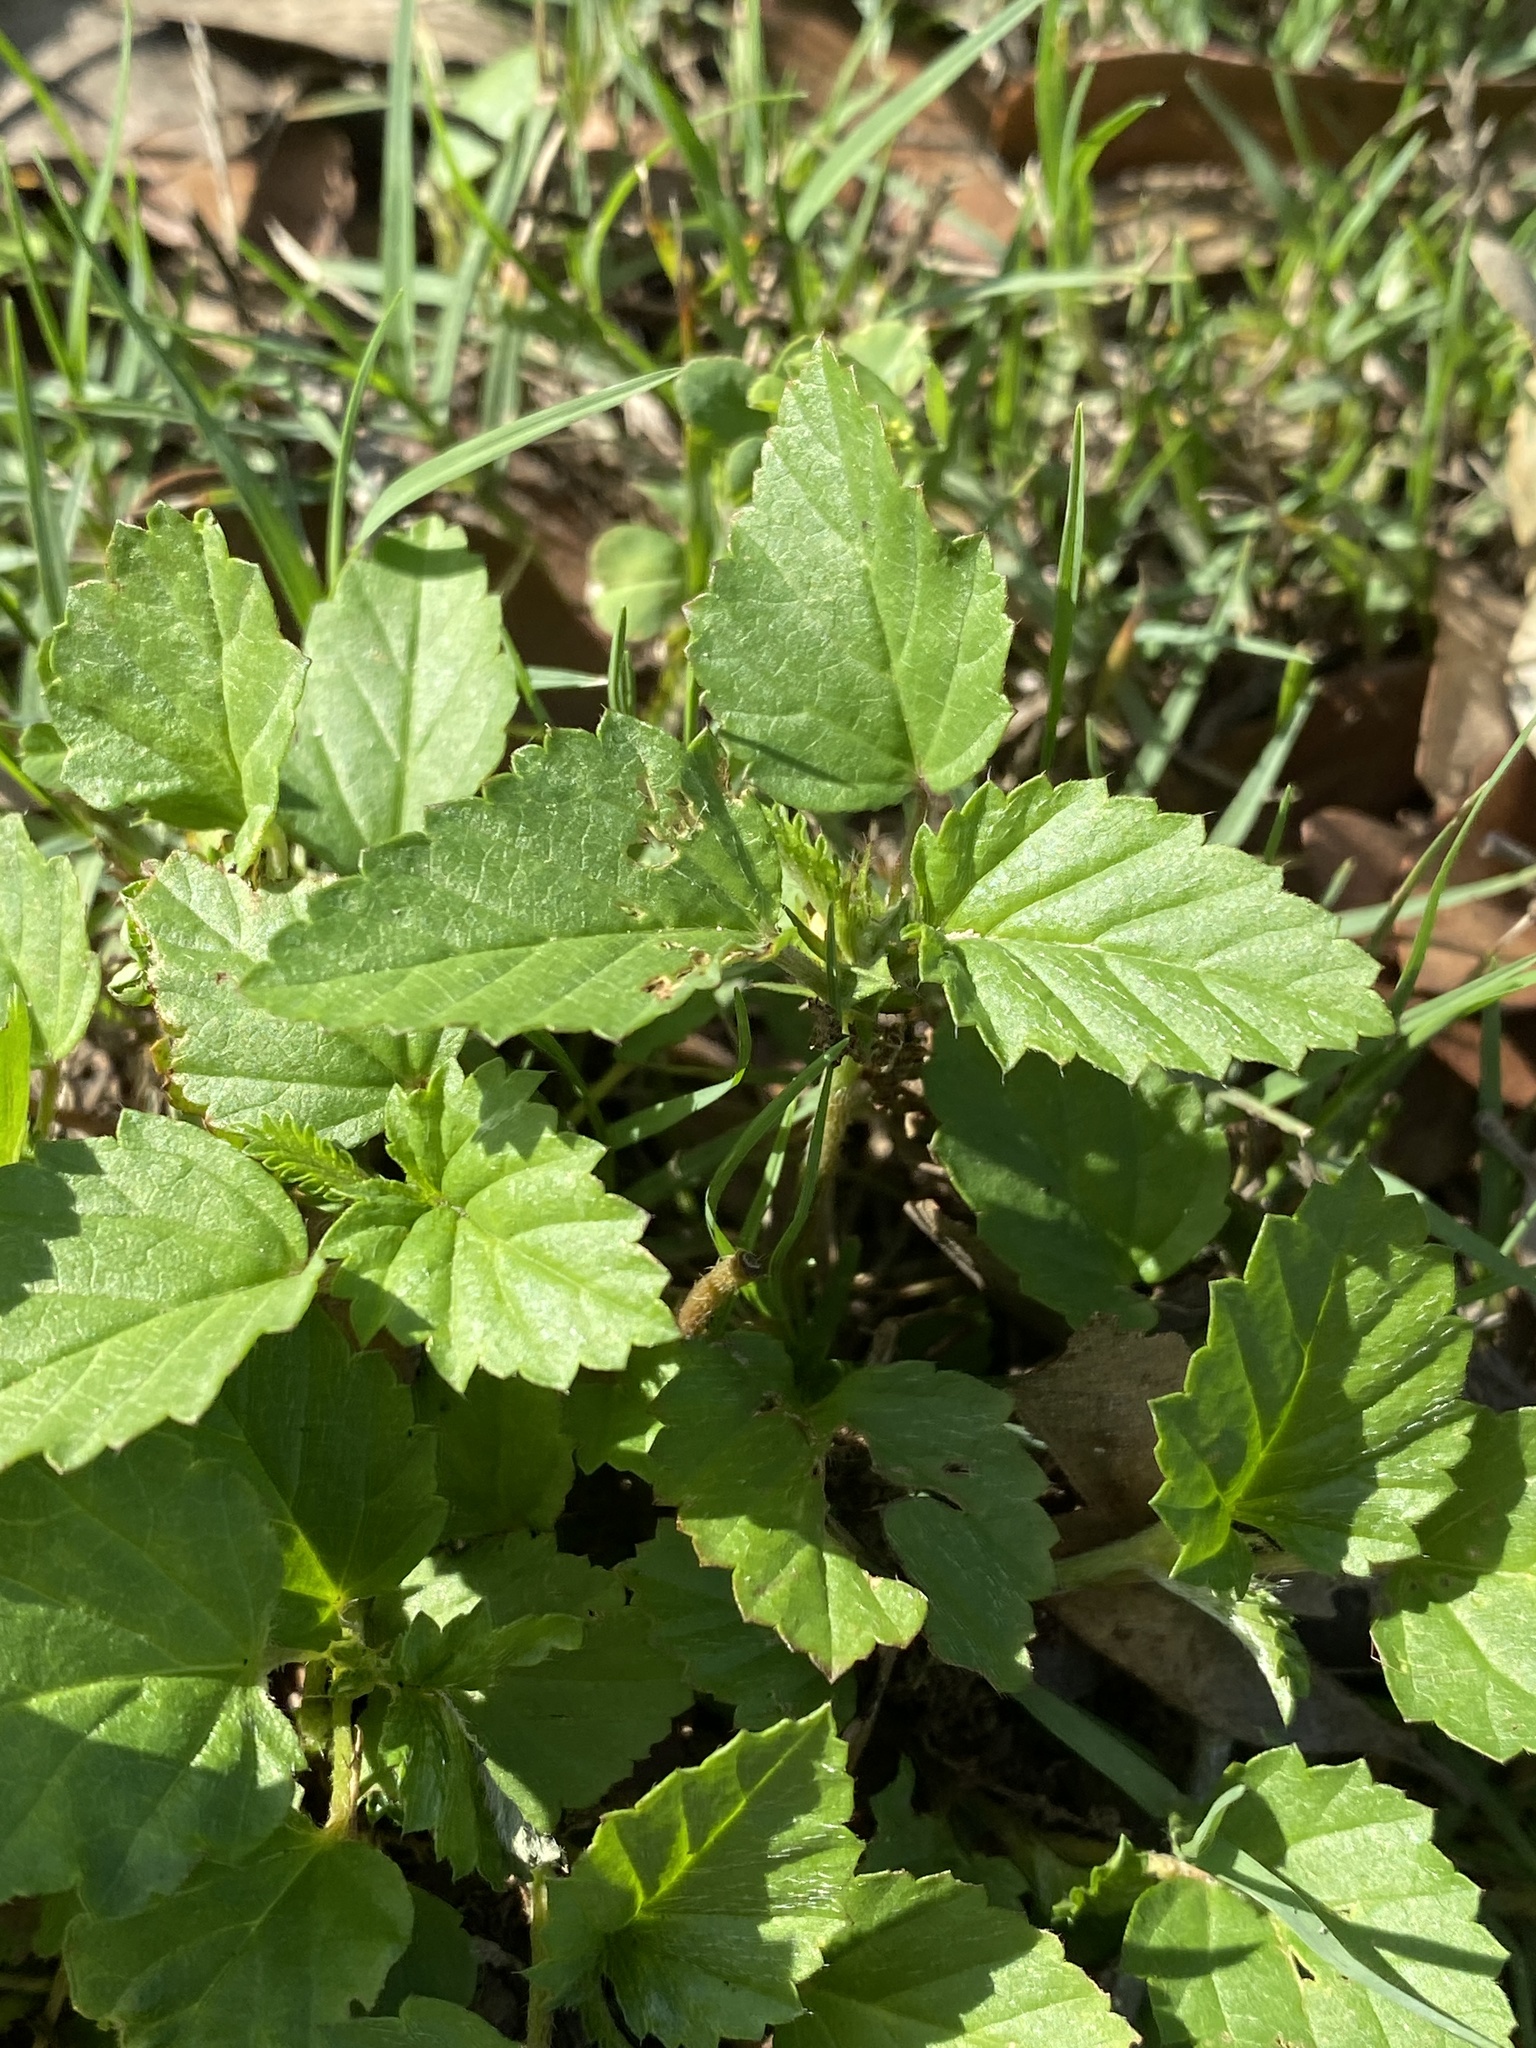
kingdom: Plantae
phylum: Tracheophyta
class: Magnoliopsida
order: Malvales
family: Malvaceae
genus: Malvastrum
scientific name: Malvastrum coromandelianum
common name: Threelobe false mallow
